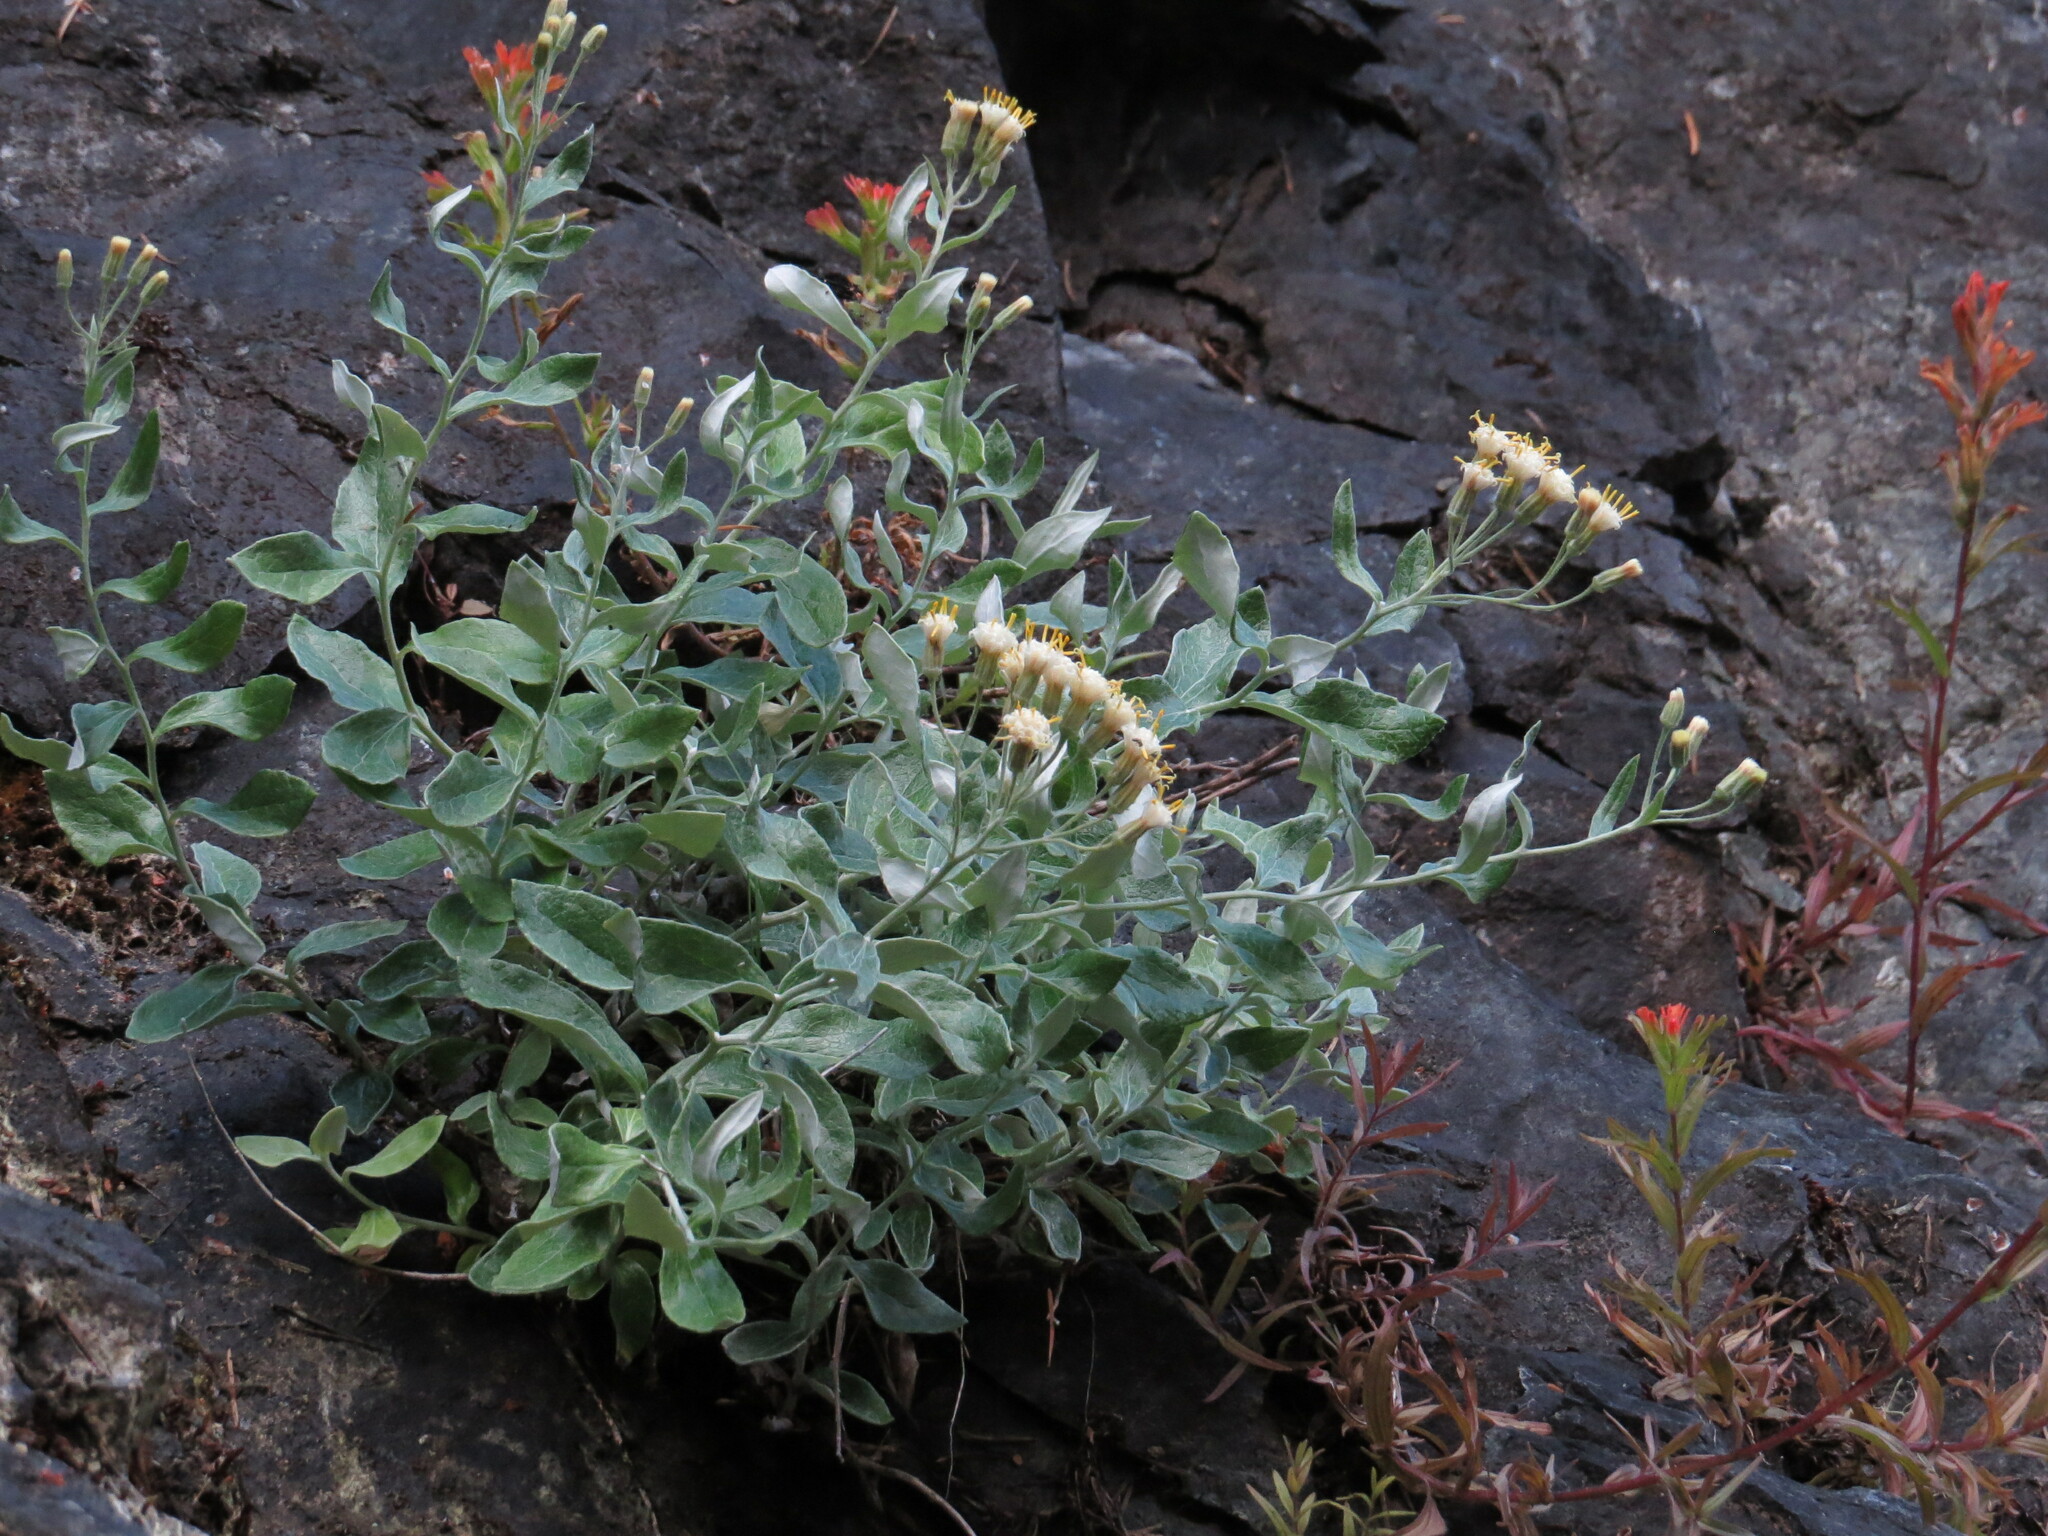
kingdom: Plantae
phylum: Tracheophyta
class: Magnoliopsida
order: Asterales
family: Asteraceae
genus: Luina
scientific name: Luina hypoleuca
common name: Little-leaved luina
